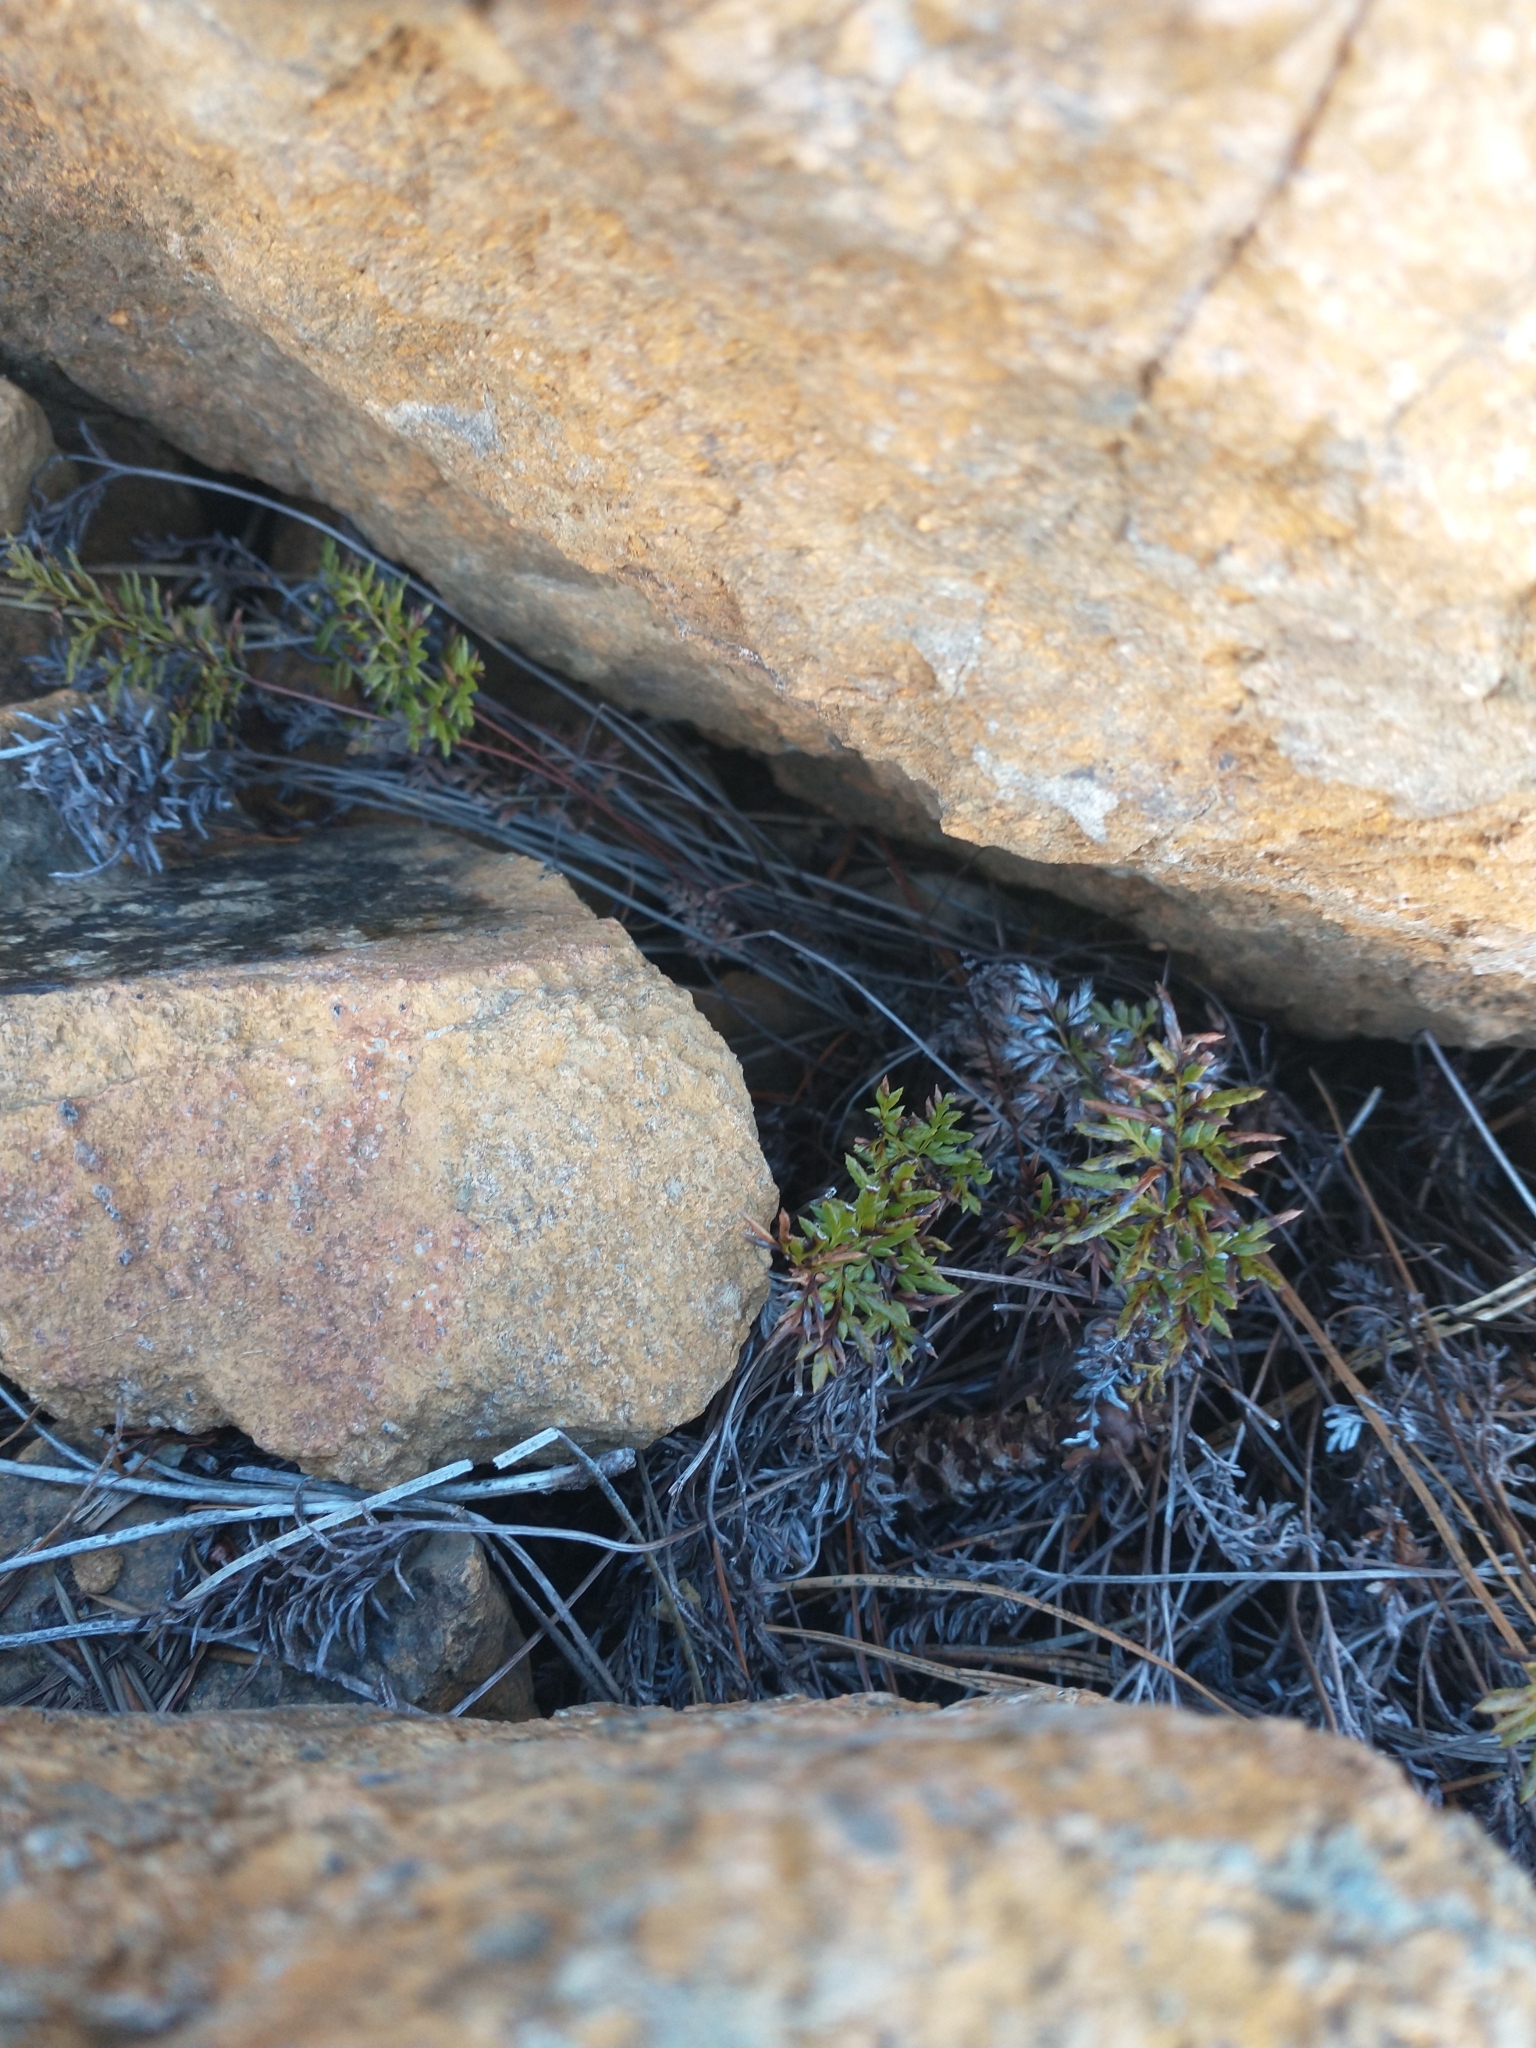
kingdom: Plantae
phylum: Tracheophyta
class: Polypodiopsida
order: Polypodiales
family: Pteridaceae
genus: Aspidotis
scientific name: Aspidotis densa
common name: Indian's dream
